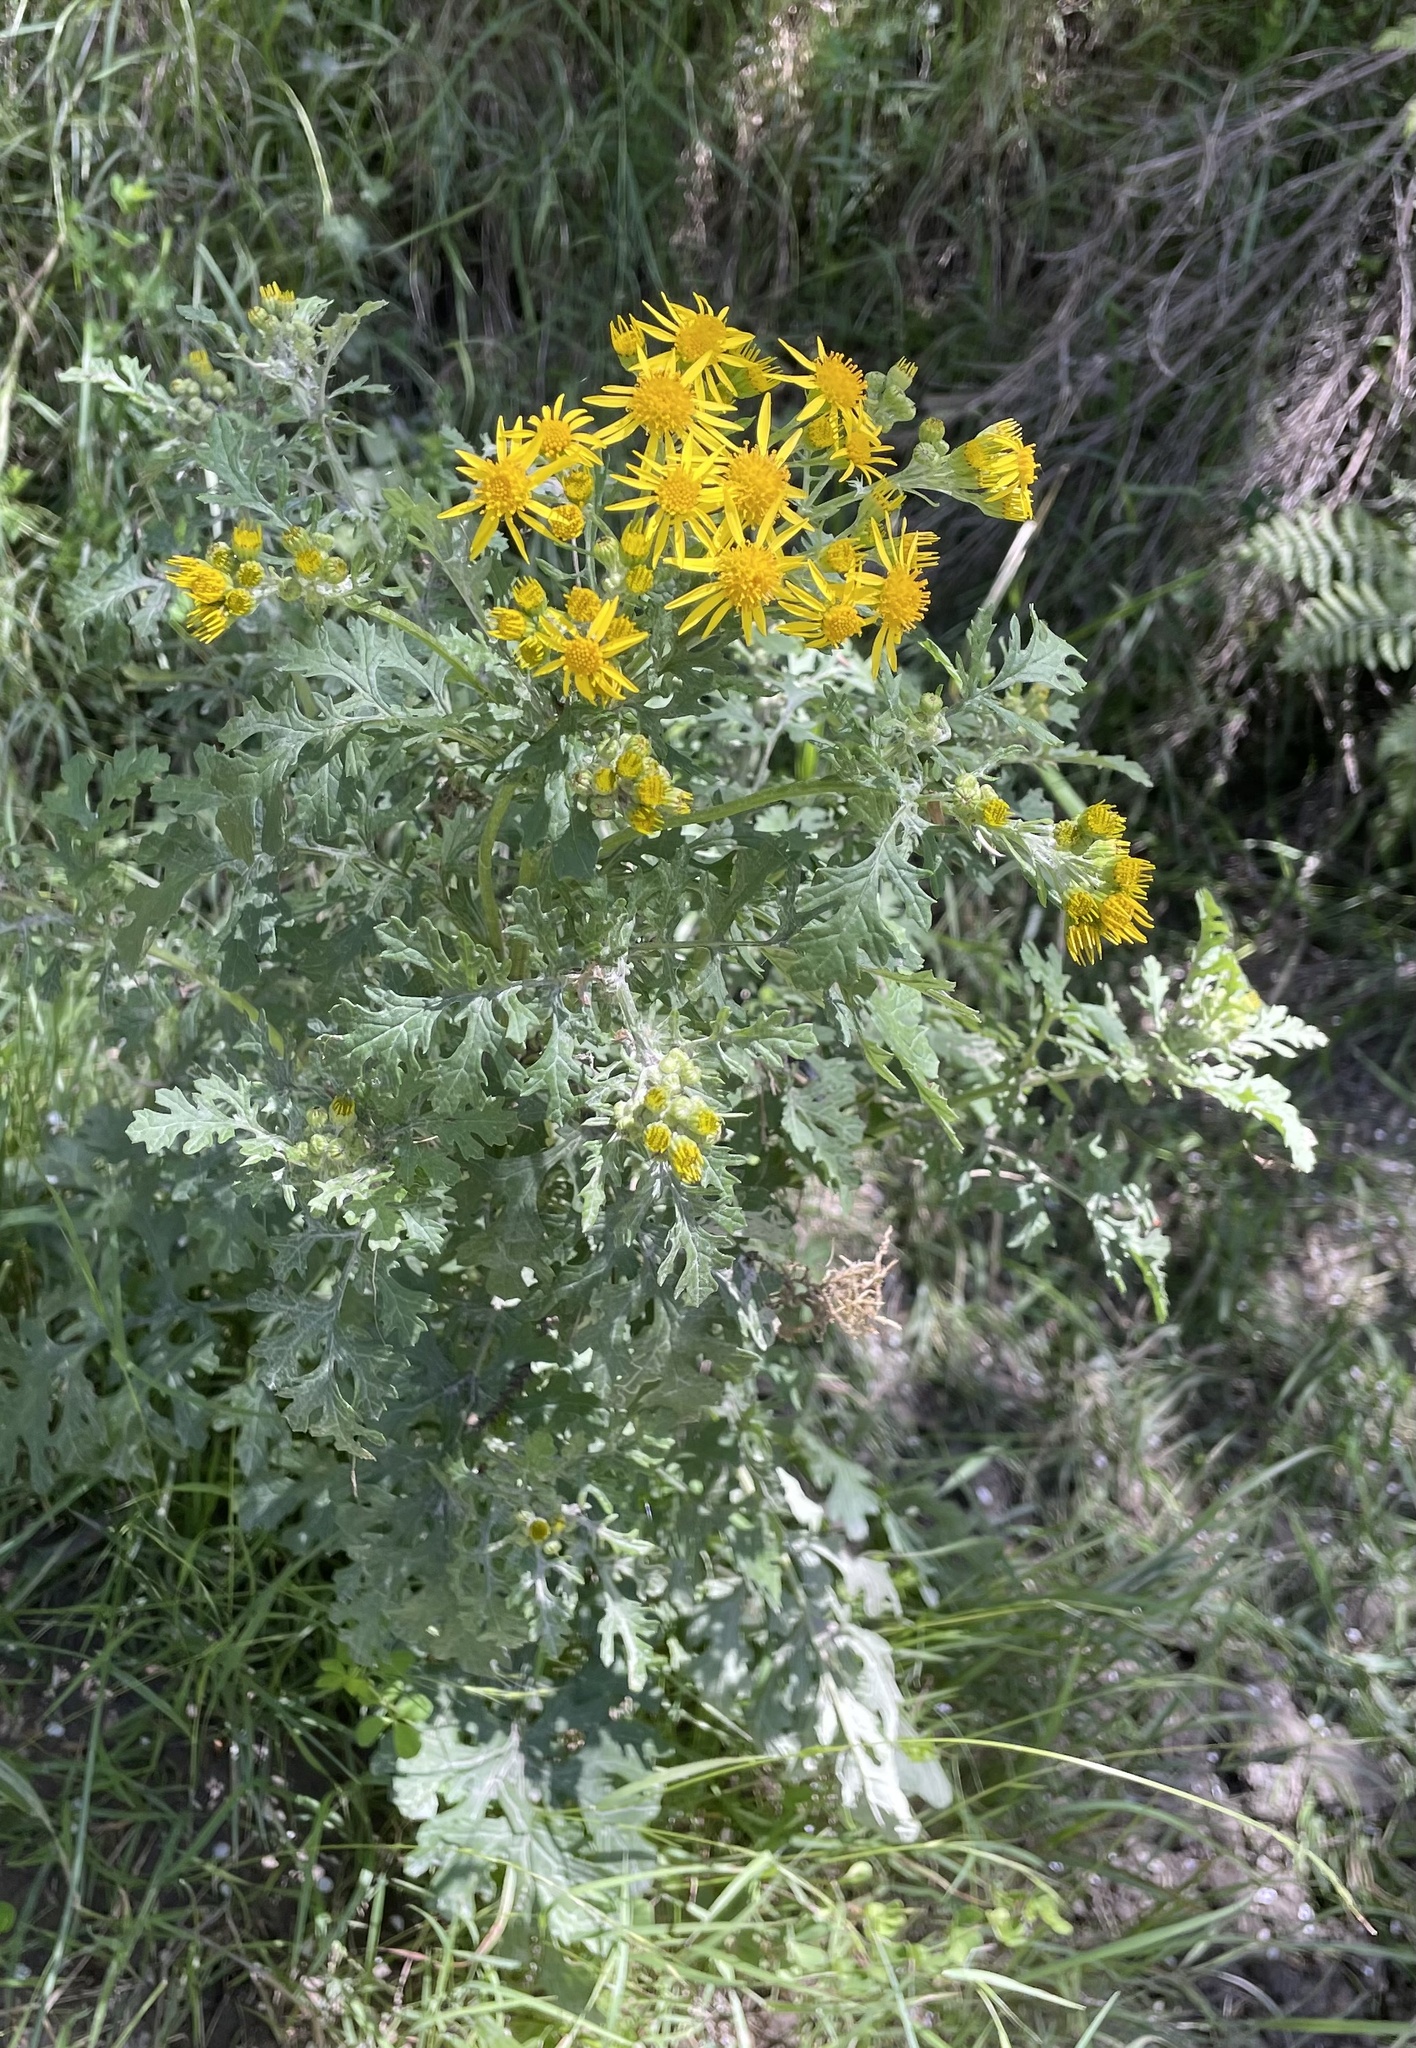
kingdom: Plantae
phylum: Tracheophyta
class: Magnoliopsida
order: Asterales
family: Asteraceae
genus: Jacobaea
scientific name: Jacobaea vulgaris
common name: Stinking willie
